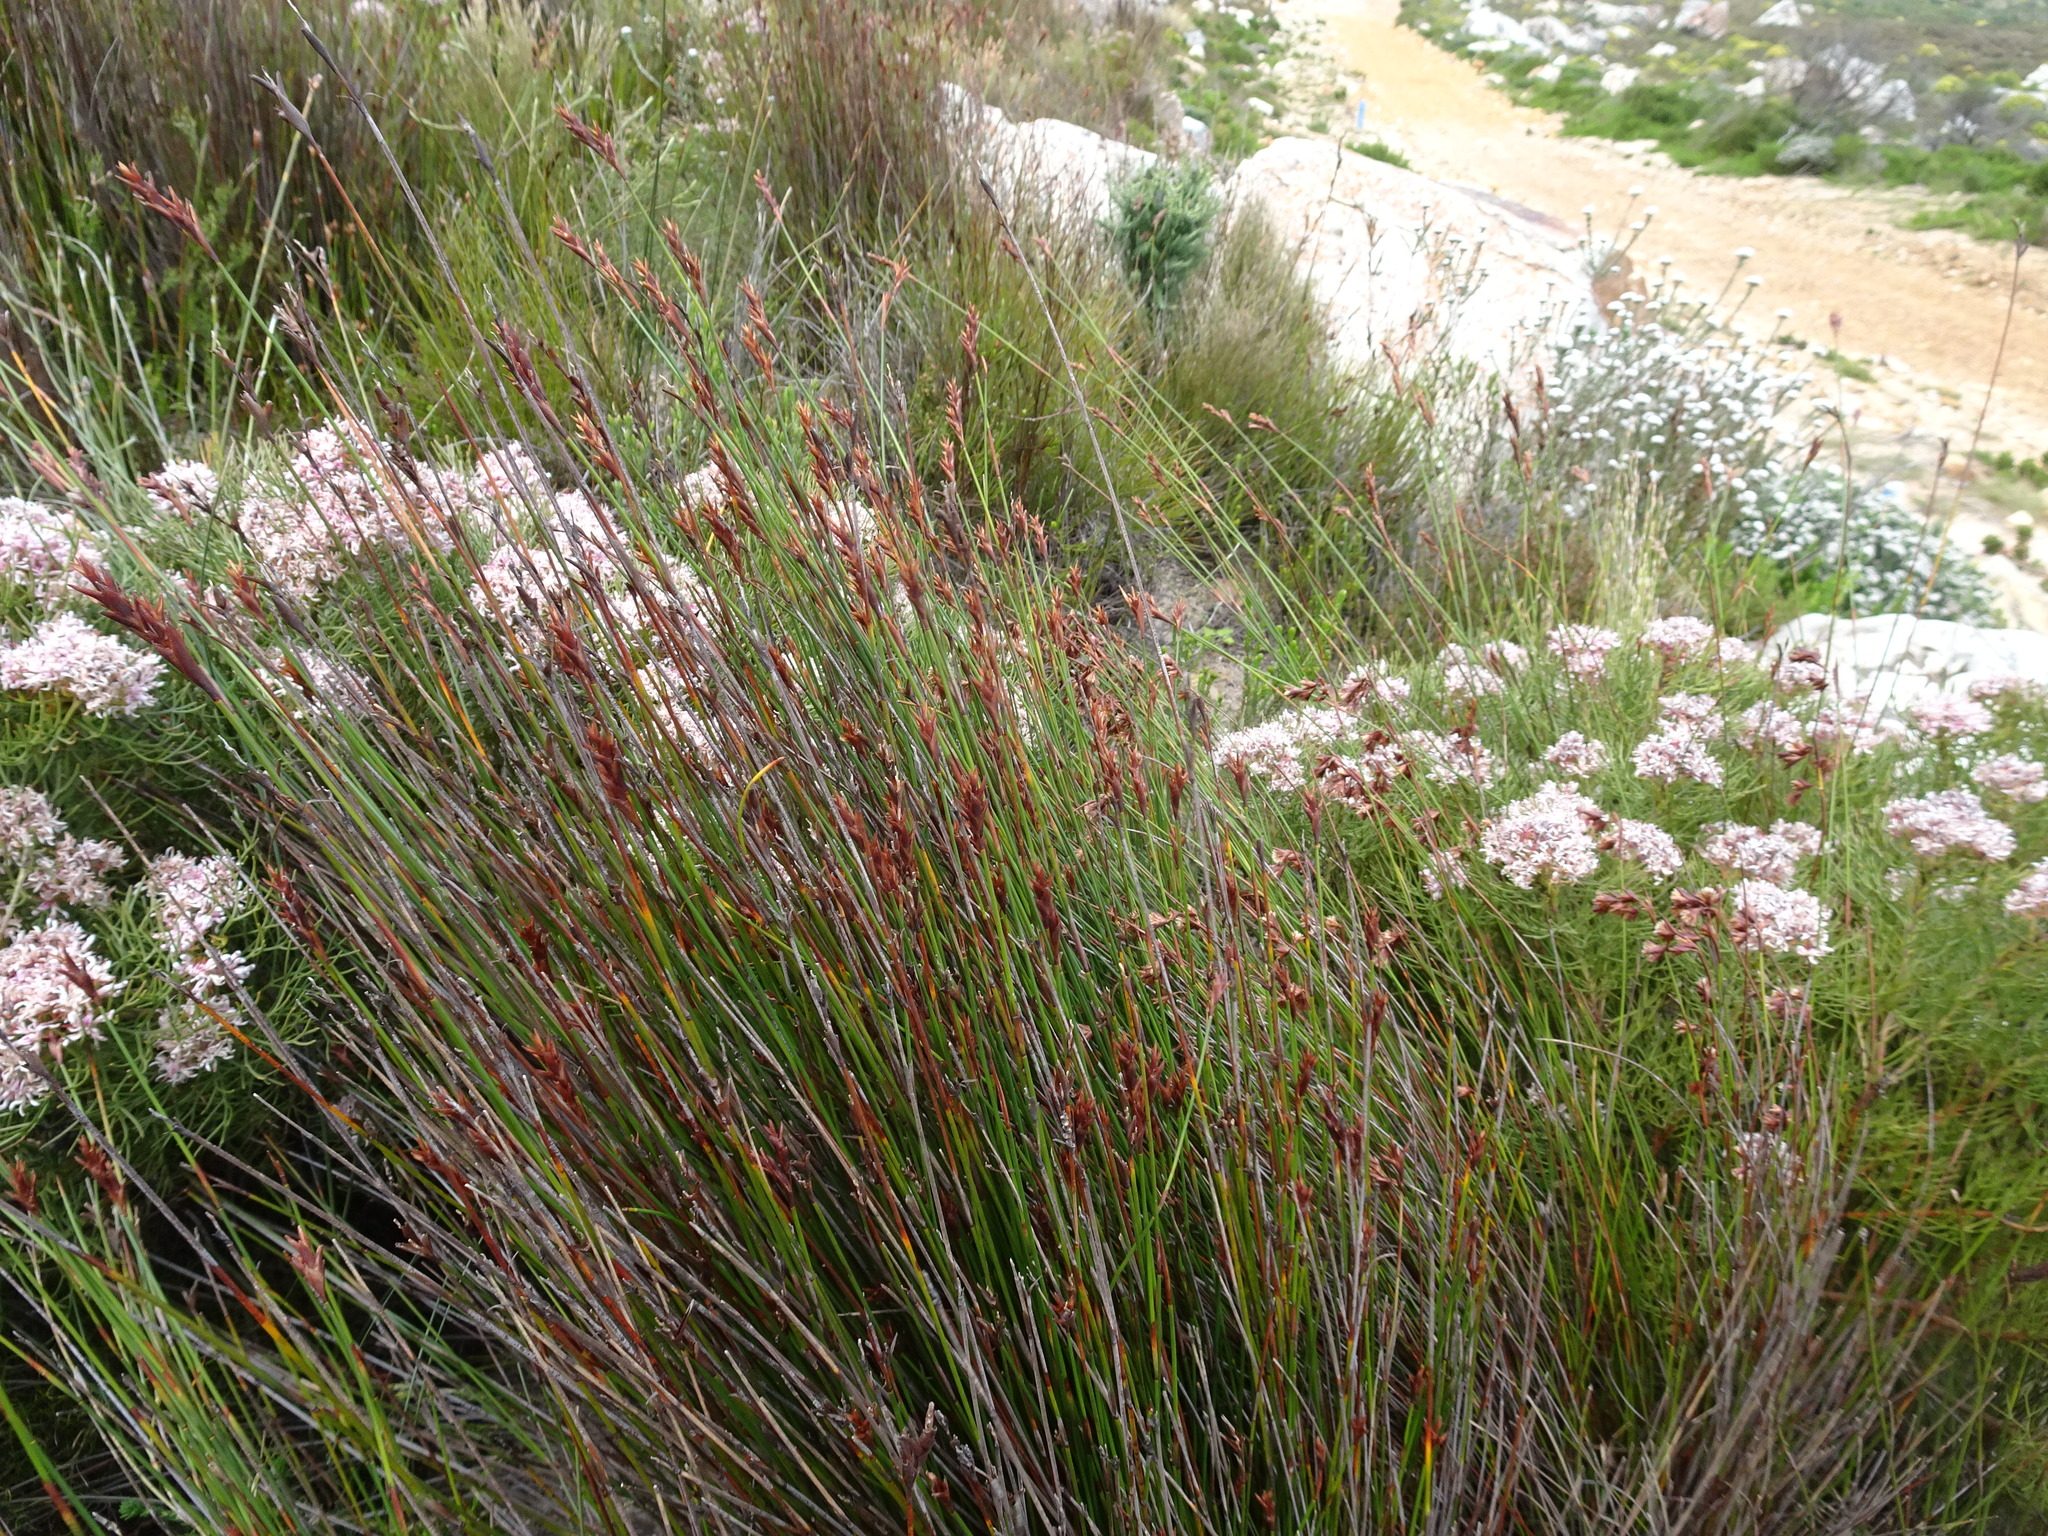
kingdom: Plantae
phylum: Tracheophyta
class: Liliopsida
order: Poales
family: Restionaceae
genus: Staberoha
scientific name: Staberoha cernua
